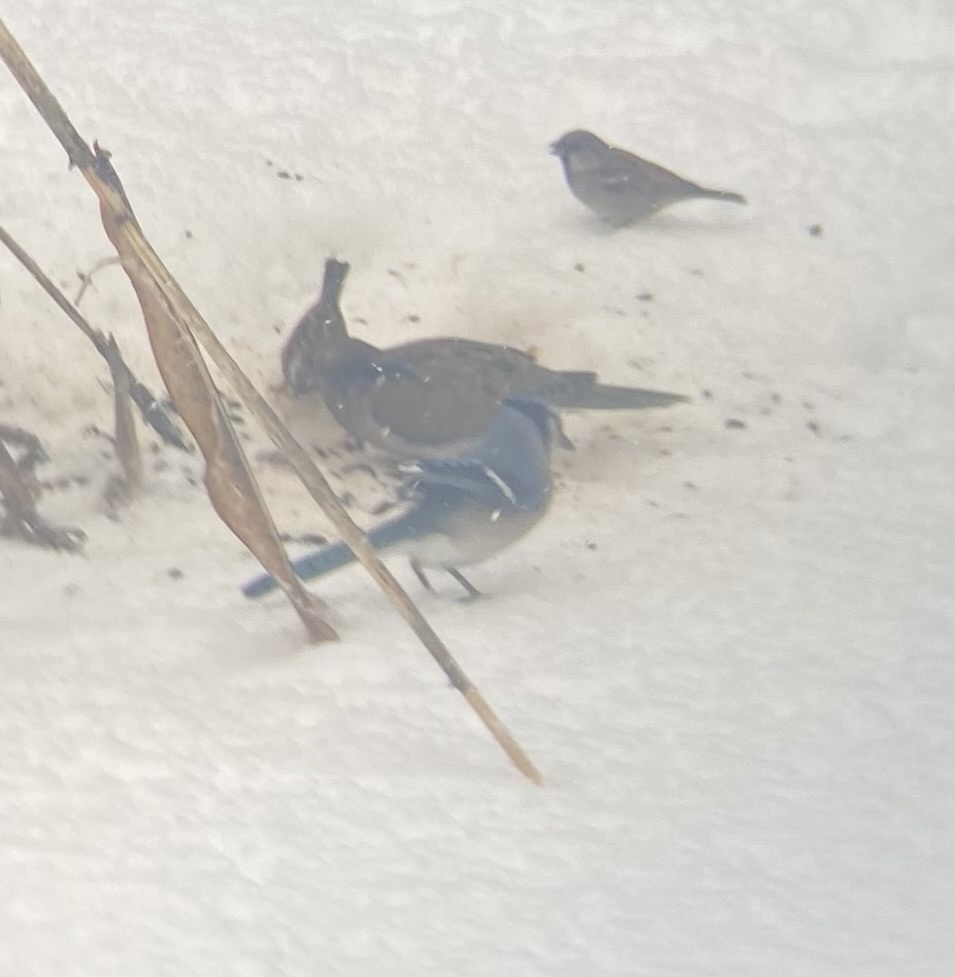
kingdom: Animalia
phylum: Chordata
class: Aves
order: Passeriformes
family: Corvidae
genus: Cyanocitta
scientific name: Cyanocitta cristata
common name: Blue jay
